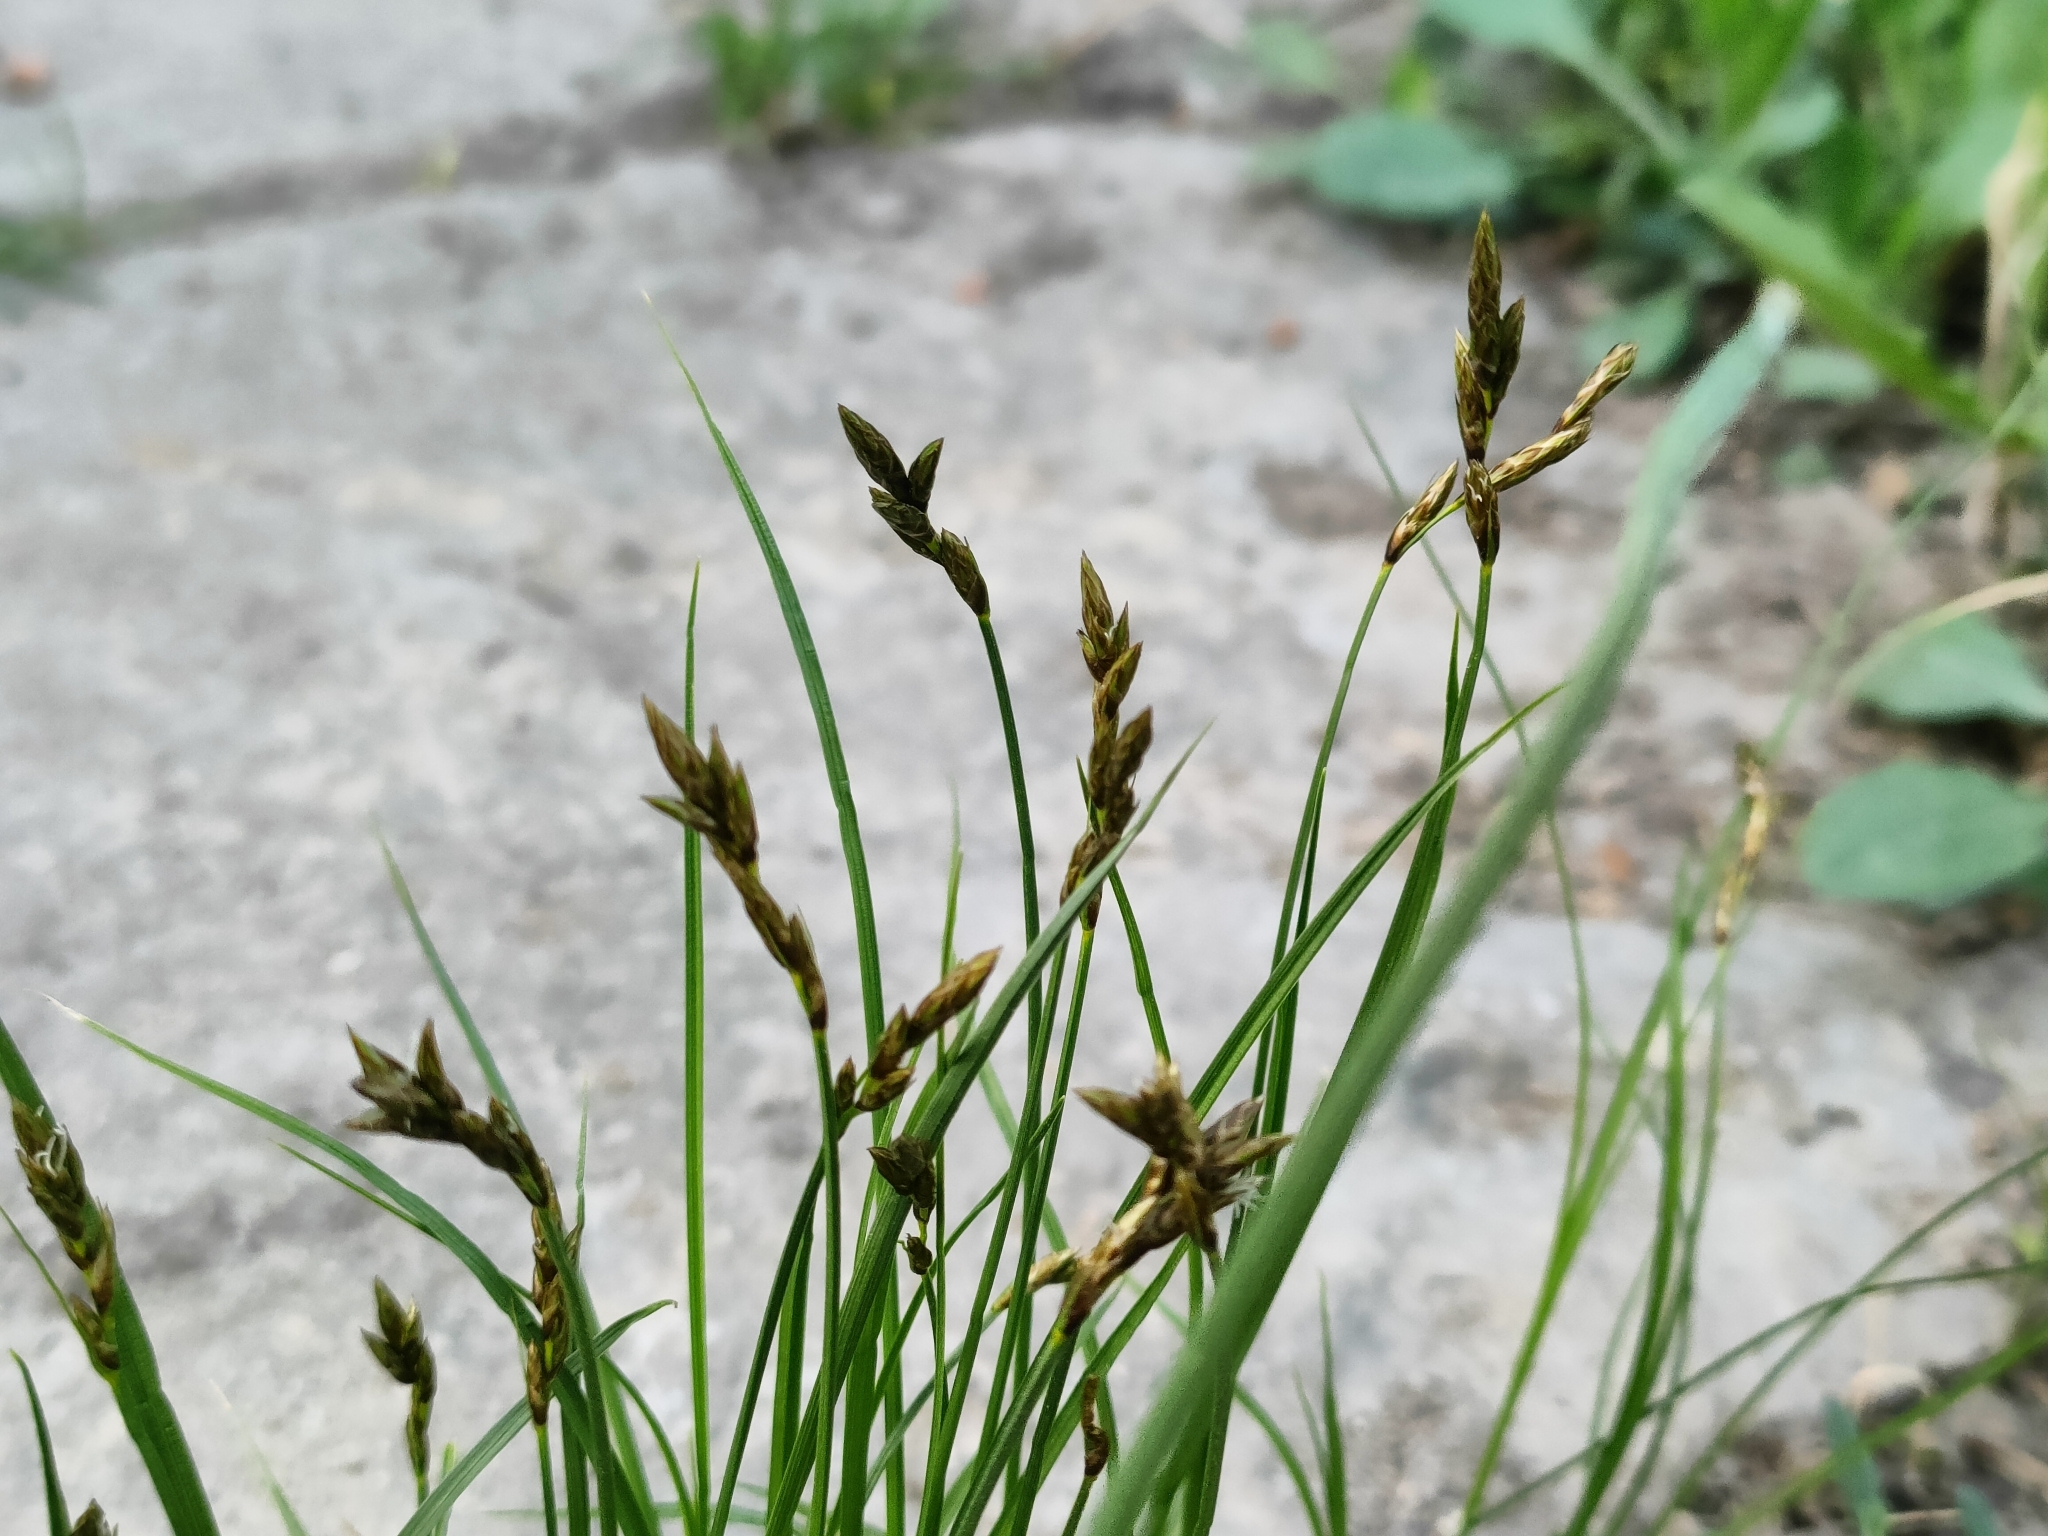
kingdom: Plantae
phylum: Tracheophyta
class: Liliopsida
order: Poales
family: Cyperaceae
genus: Carex
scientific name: Carex praecox
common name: Early sedge
